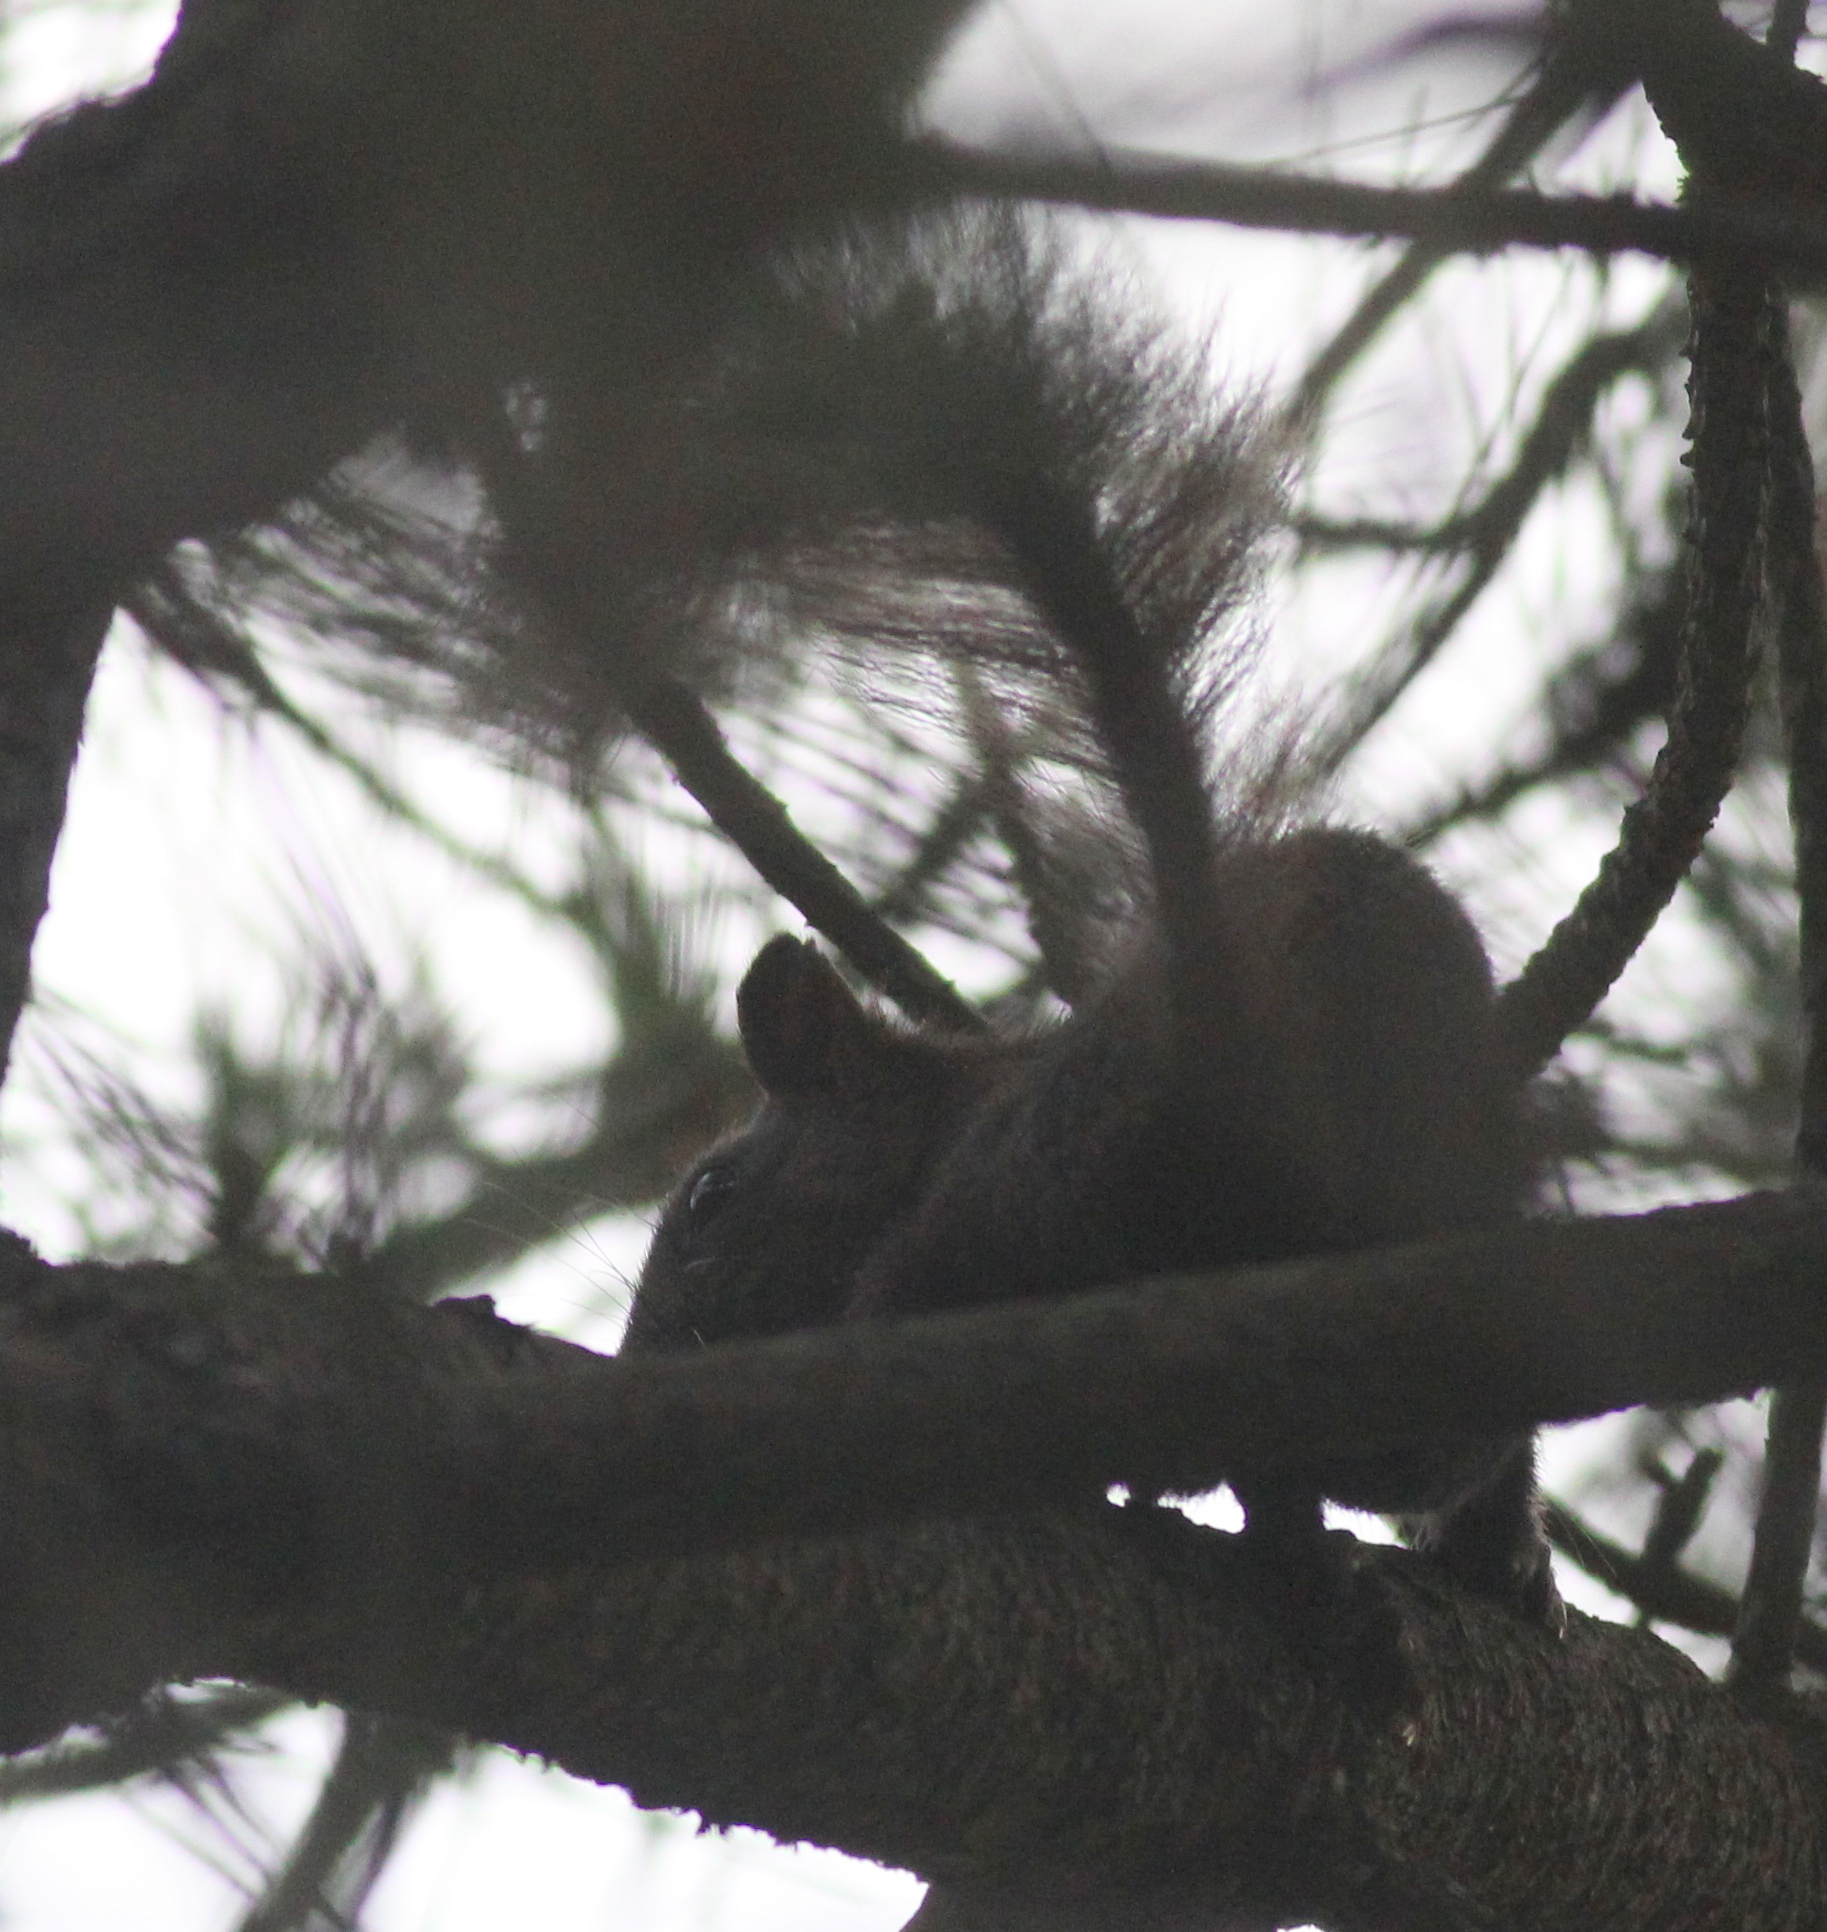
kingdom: Animalia
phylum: Chordata
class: Mammalia
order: Rodentia
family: Sciuridae
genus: Sciurus
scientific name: Sciurus vulgaris
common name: Eurasian red squirrel
